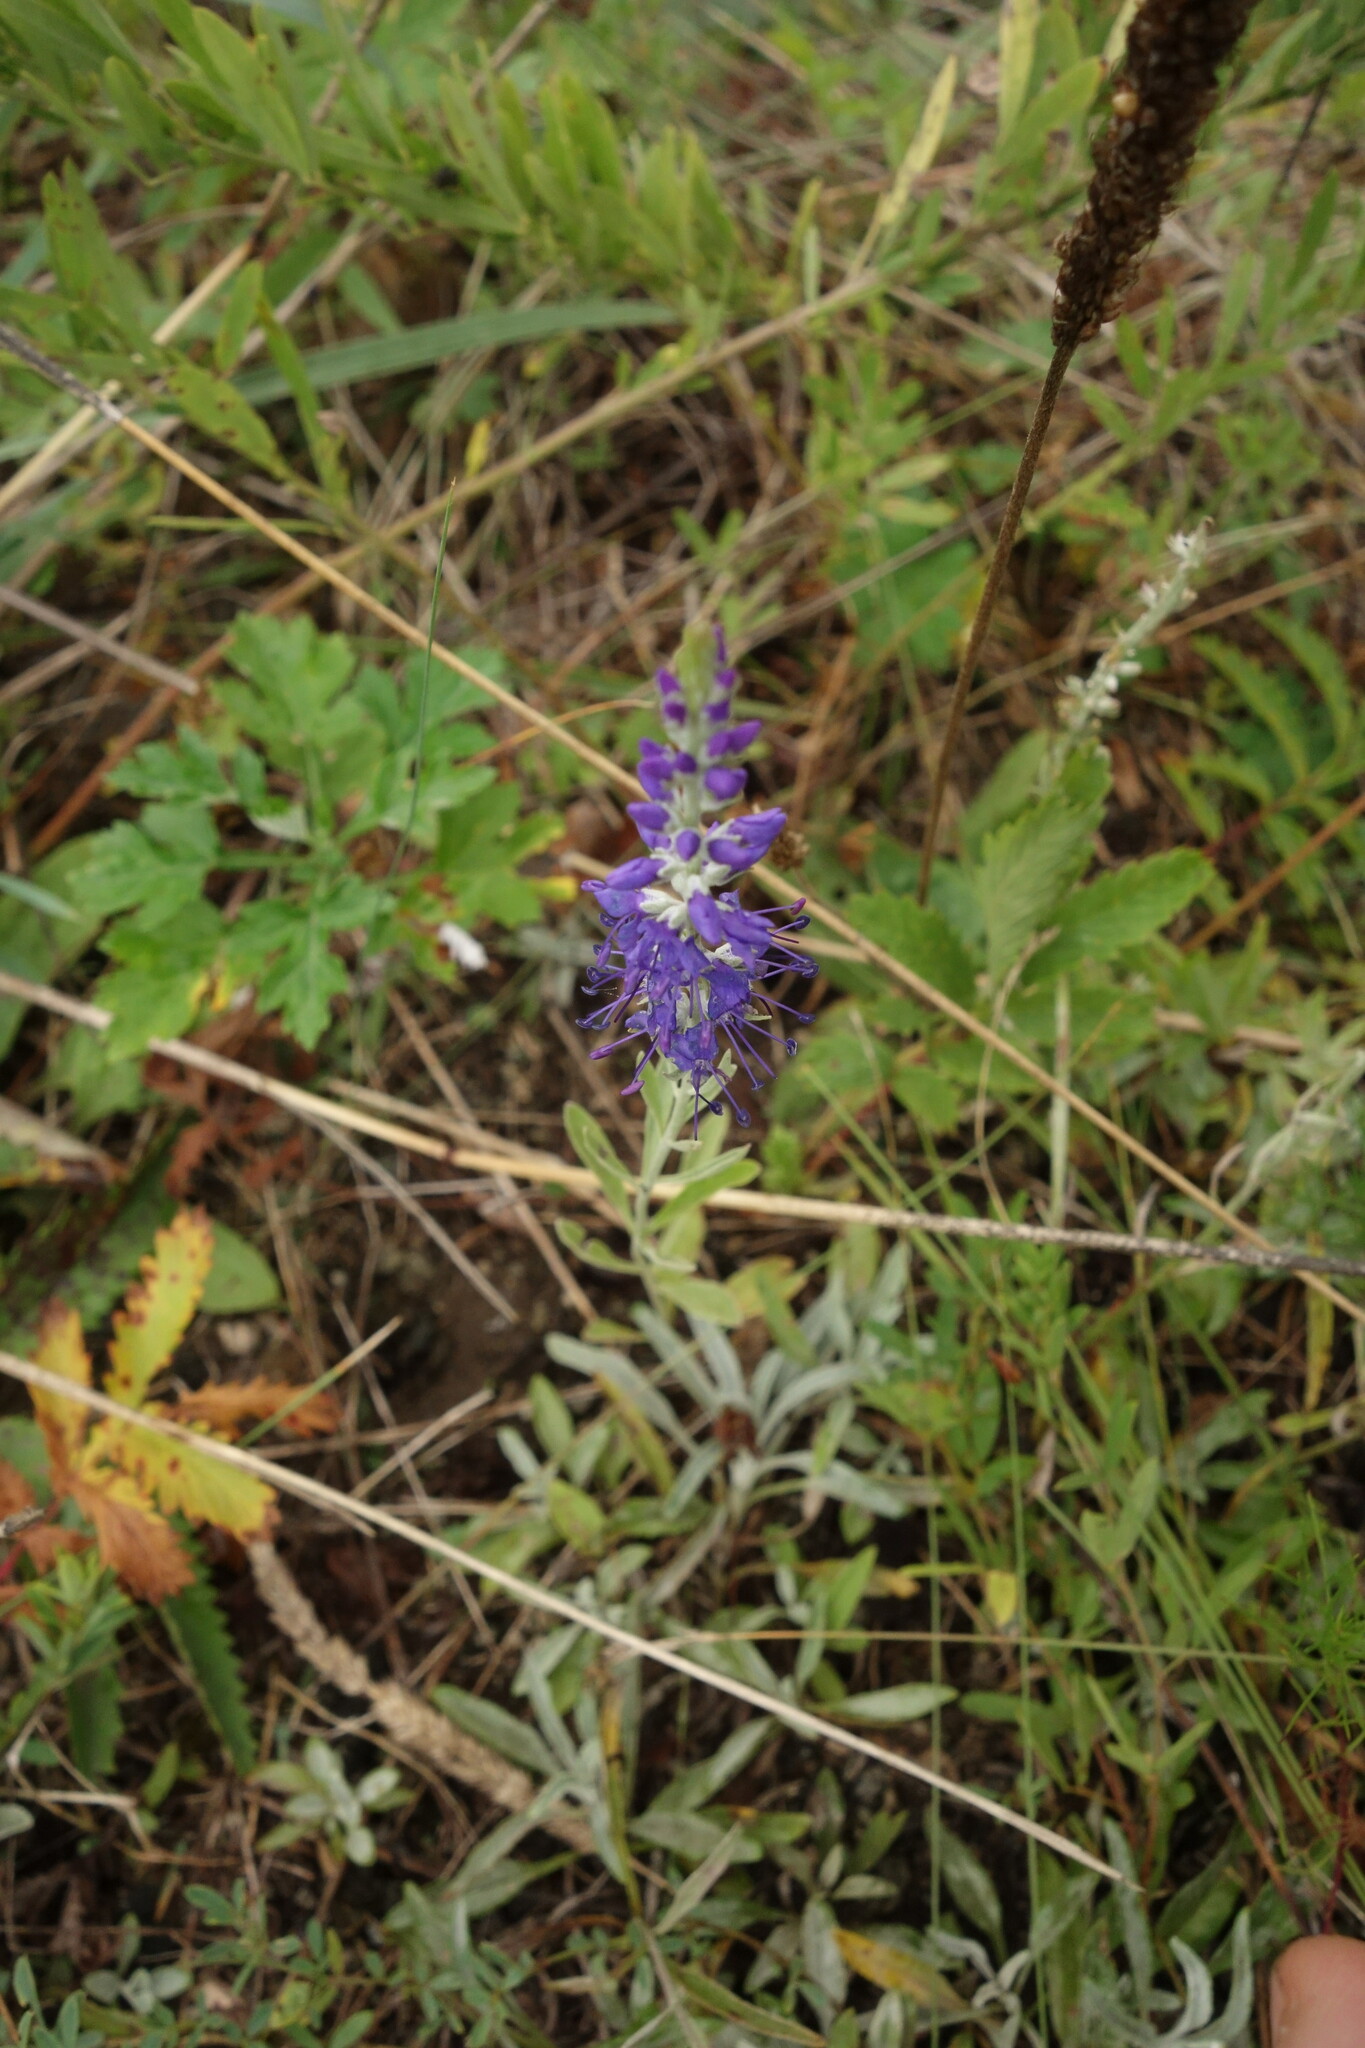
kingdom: Plantae
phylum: Tracheophyta
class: Magnoliopsida
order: Lamiales
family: Plantaginaceae
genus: Veronica
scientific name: Veronica incana
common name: Silver speedwell
